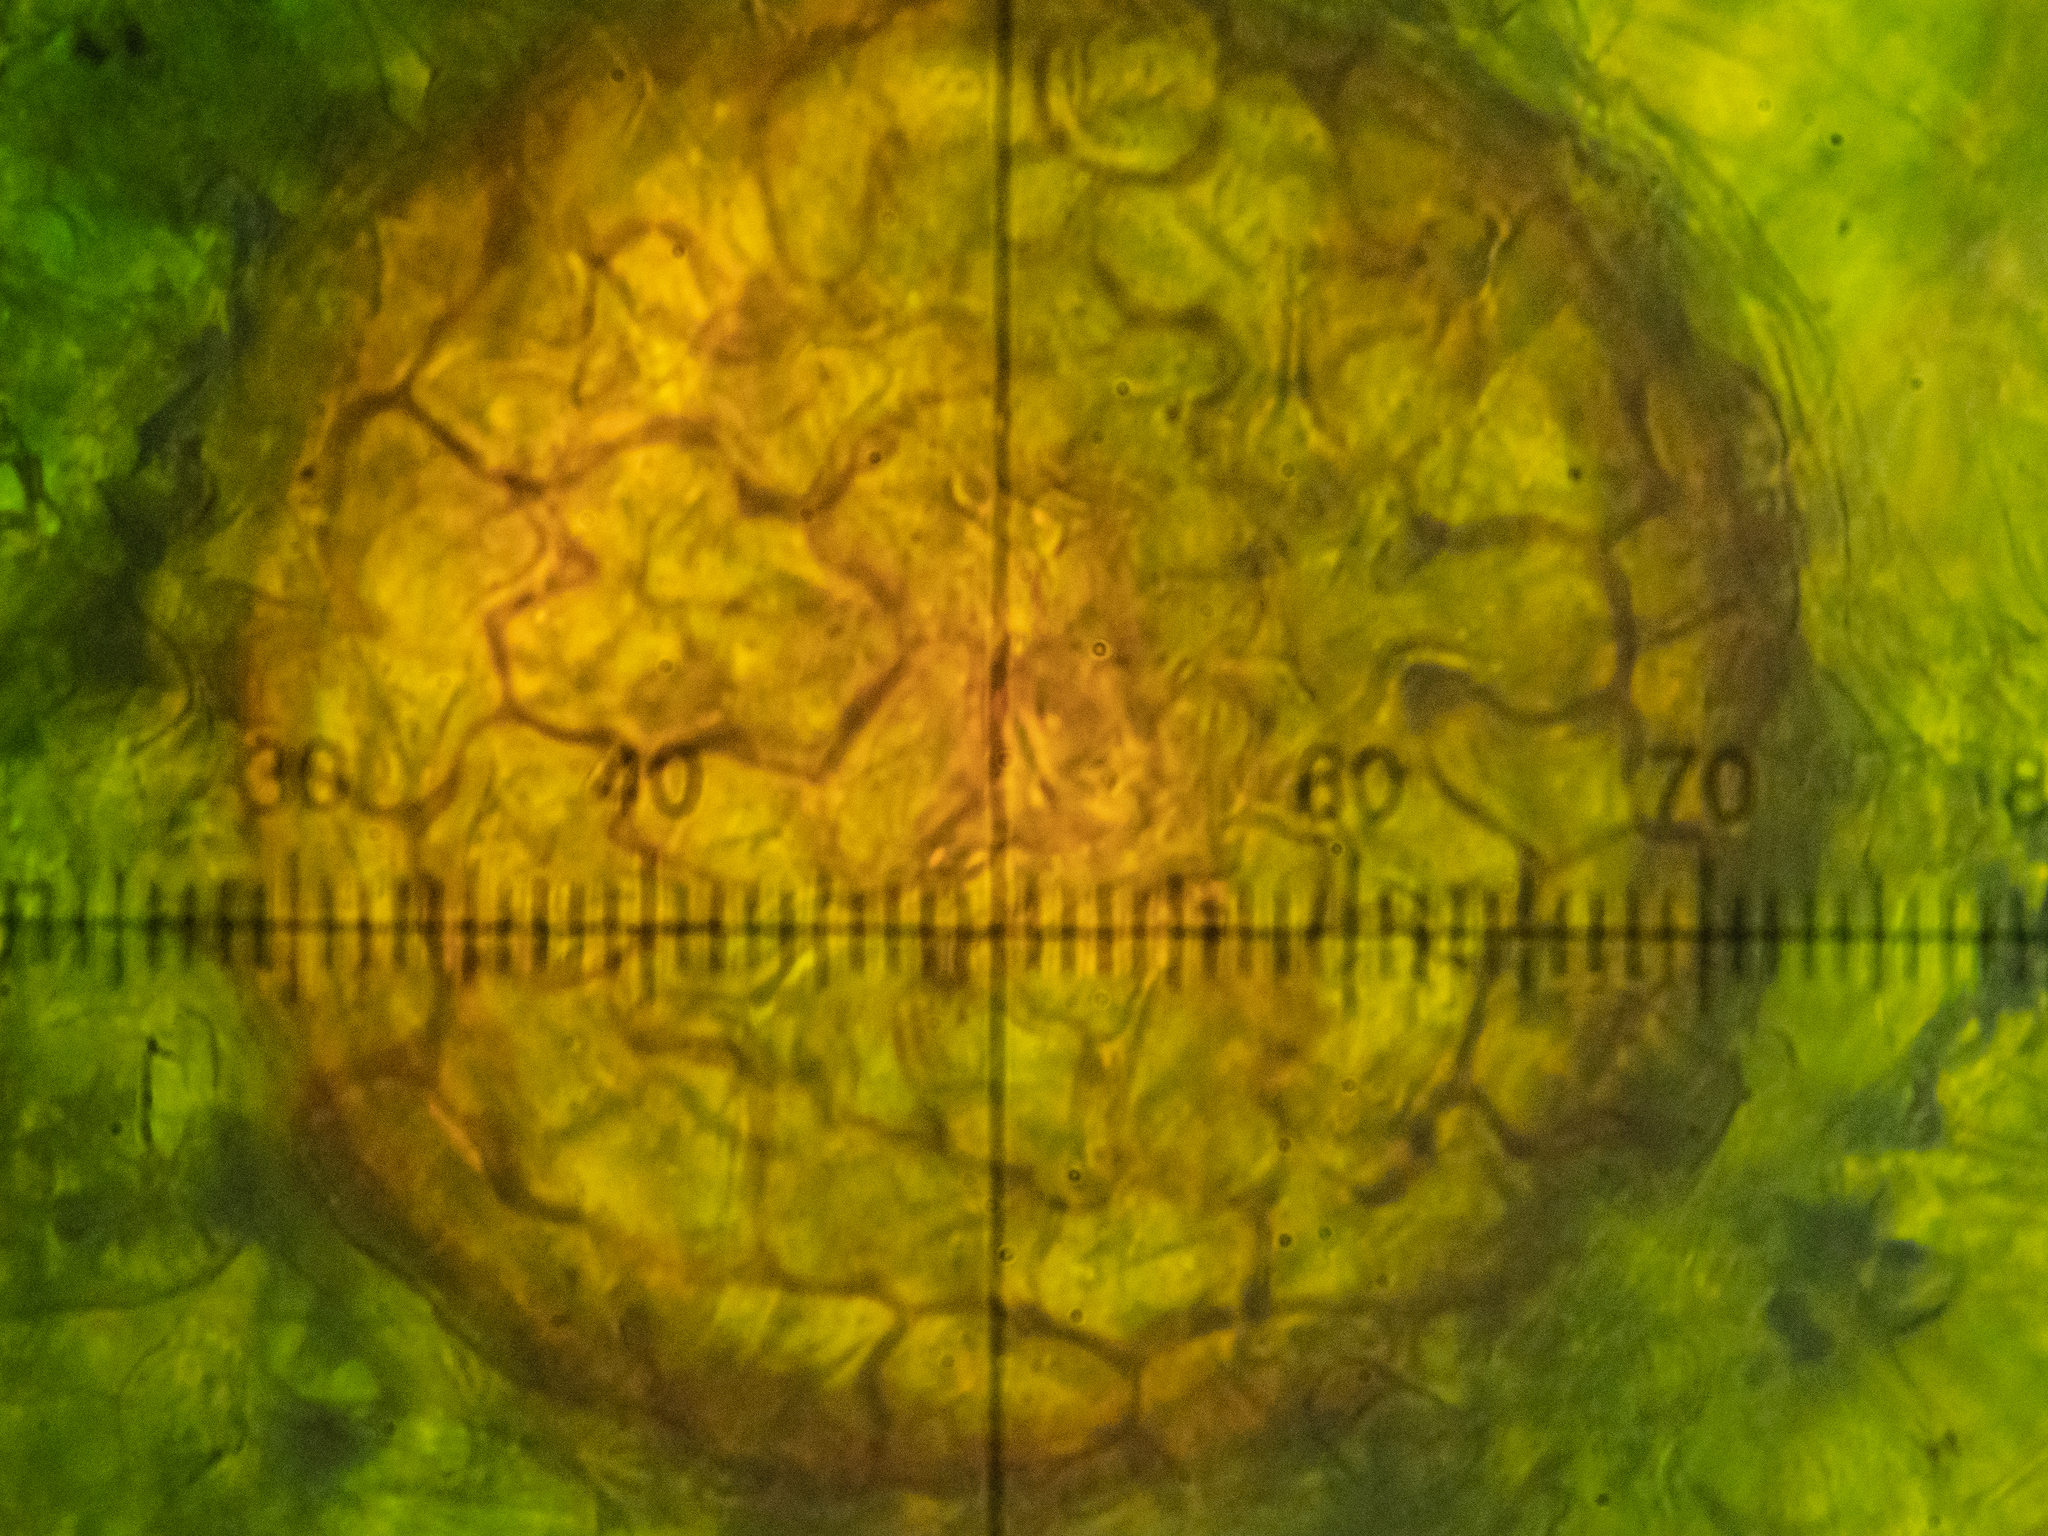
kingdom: Fungi
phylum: Ascomycota
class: Leotiomycetes
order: Helotiales
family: Erysiphaceae
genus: Golovinomyces
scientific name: Golovinomyces senecionis
